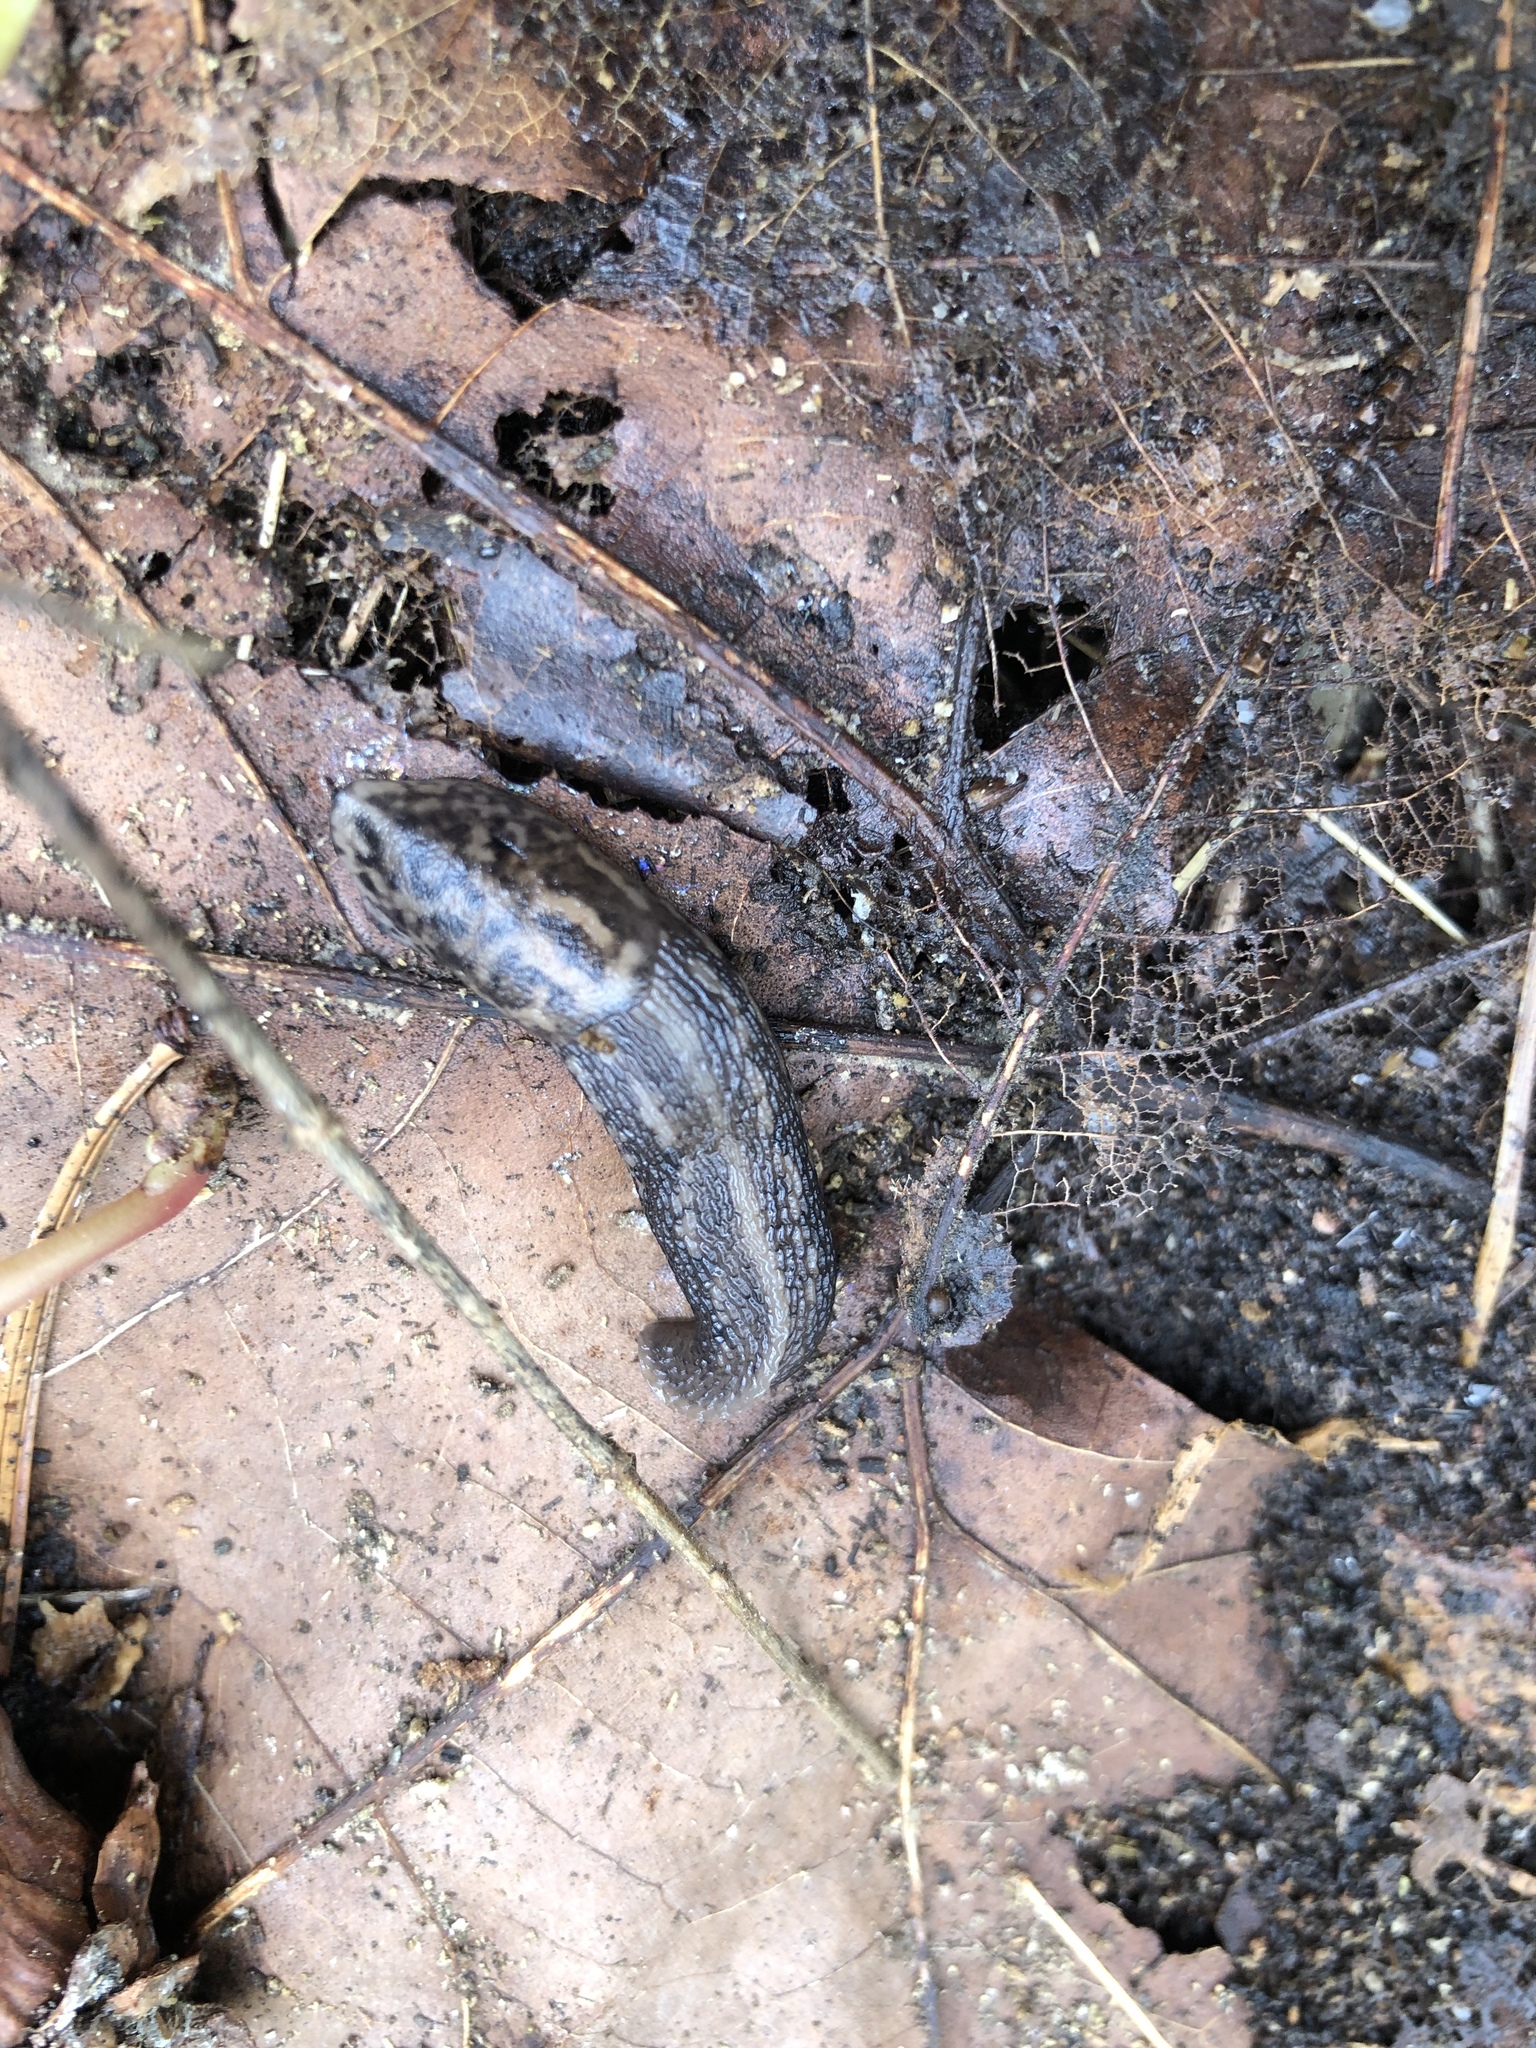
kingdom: Animalia
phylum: Mollusca
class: Gastropoda
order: Stylommatophora
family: Limacidae
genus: Limax
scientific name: Limax maximus
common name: Great grey slug
